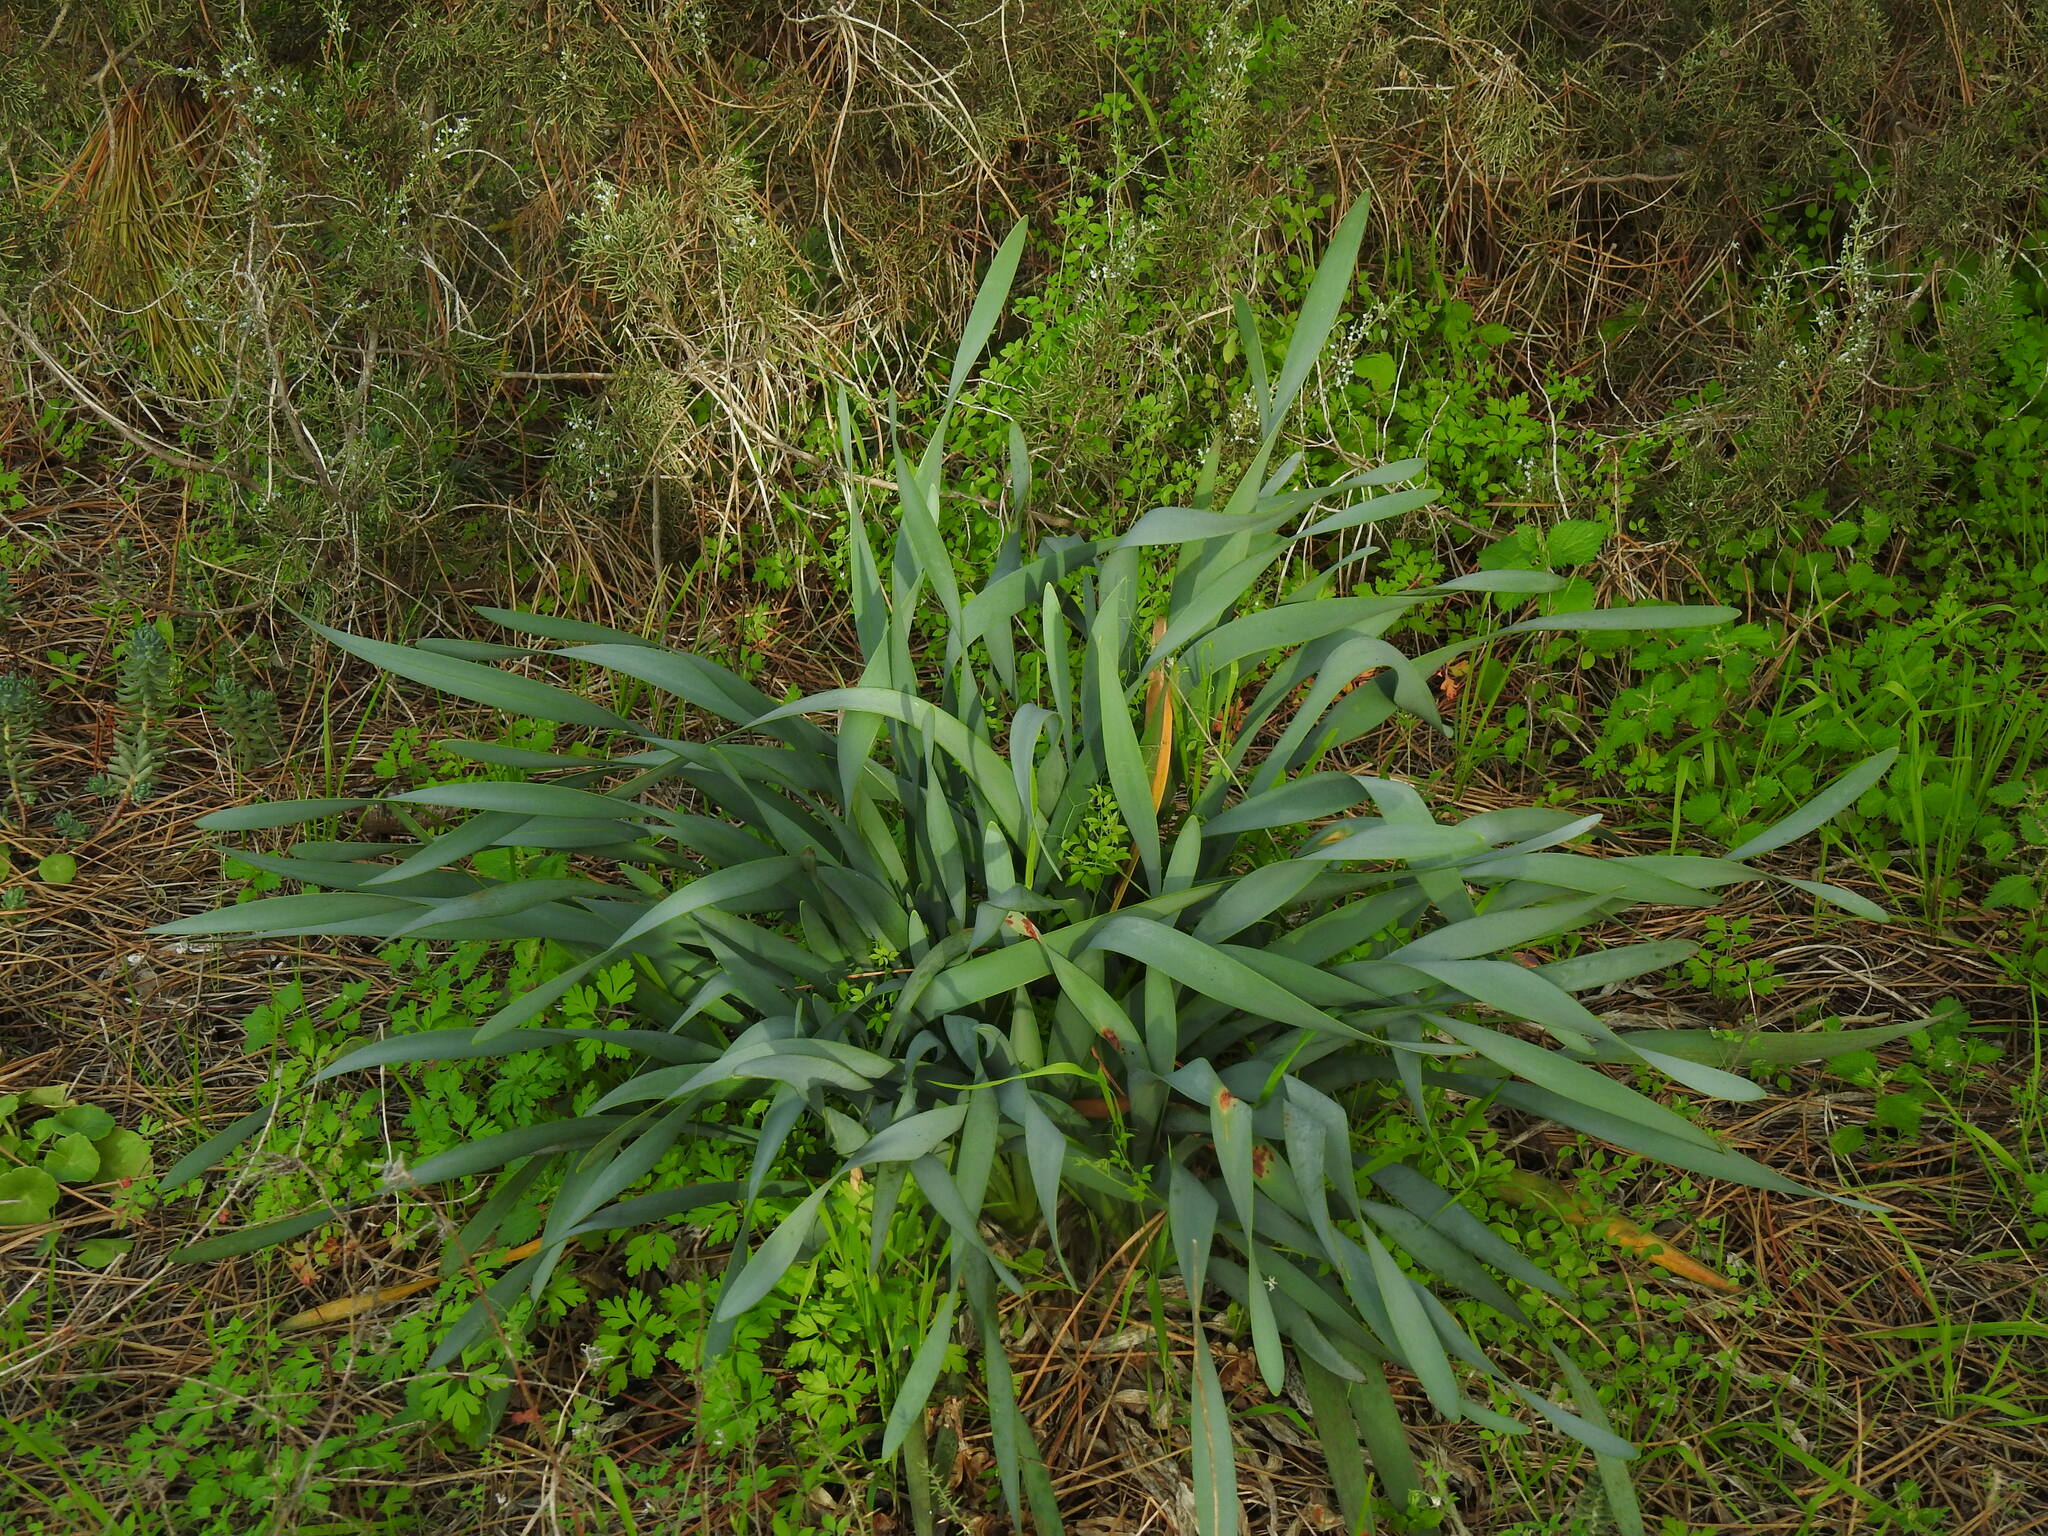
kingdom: Plantae
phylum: Tracheophyta
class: Liliopsida
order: Asparagales
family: Amaryllidaceae
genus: Pancratium
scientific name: Pancratium maritimum
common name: Sea-daffodil
